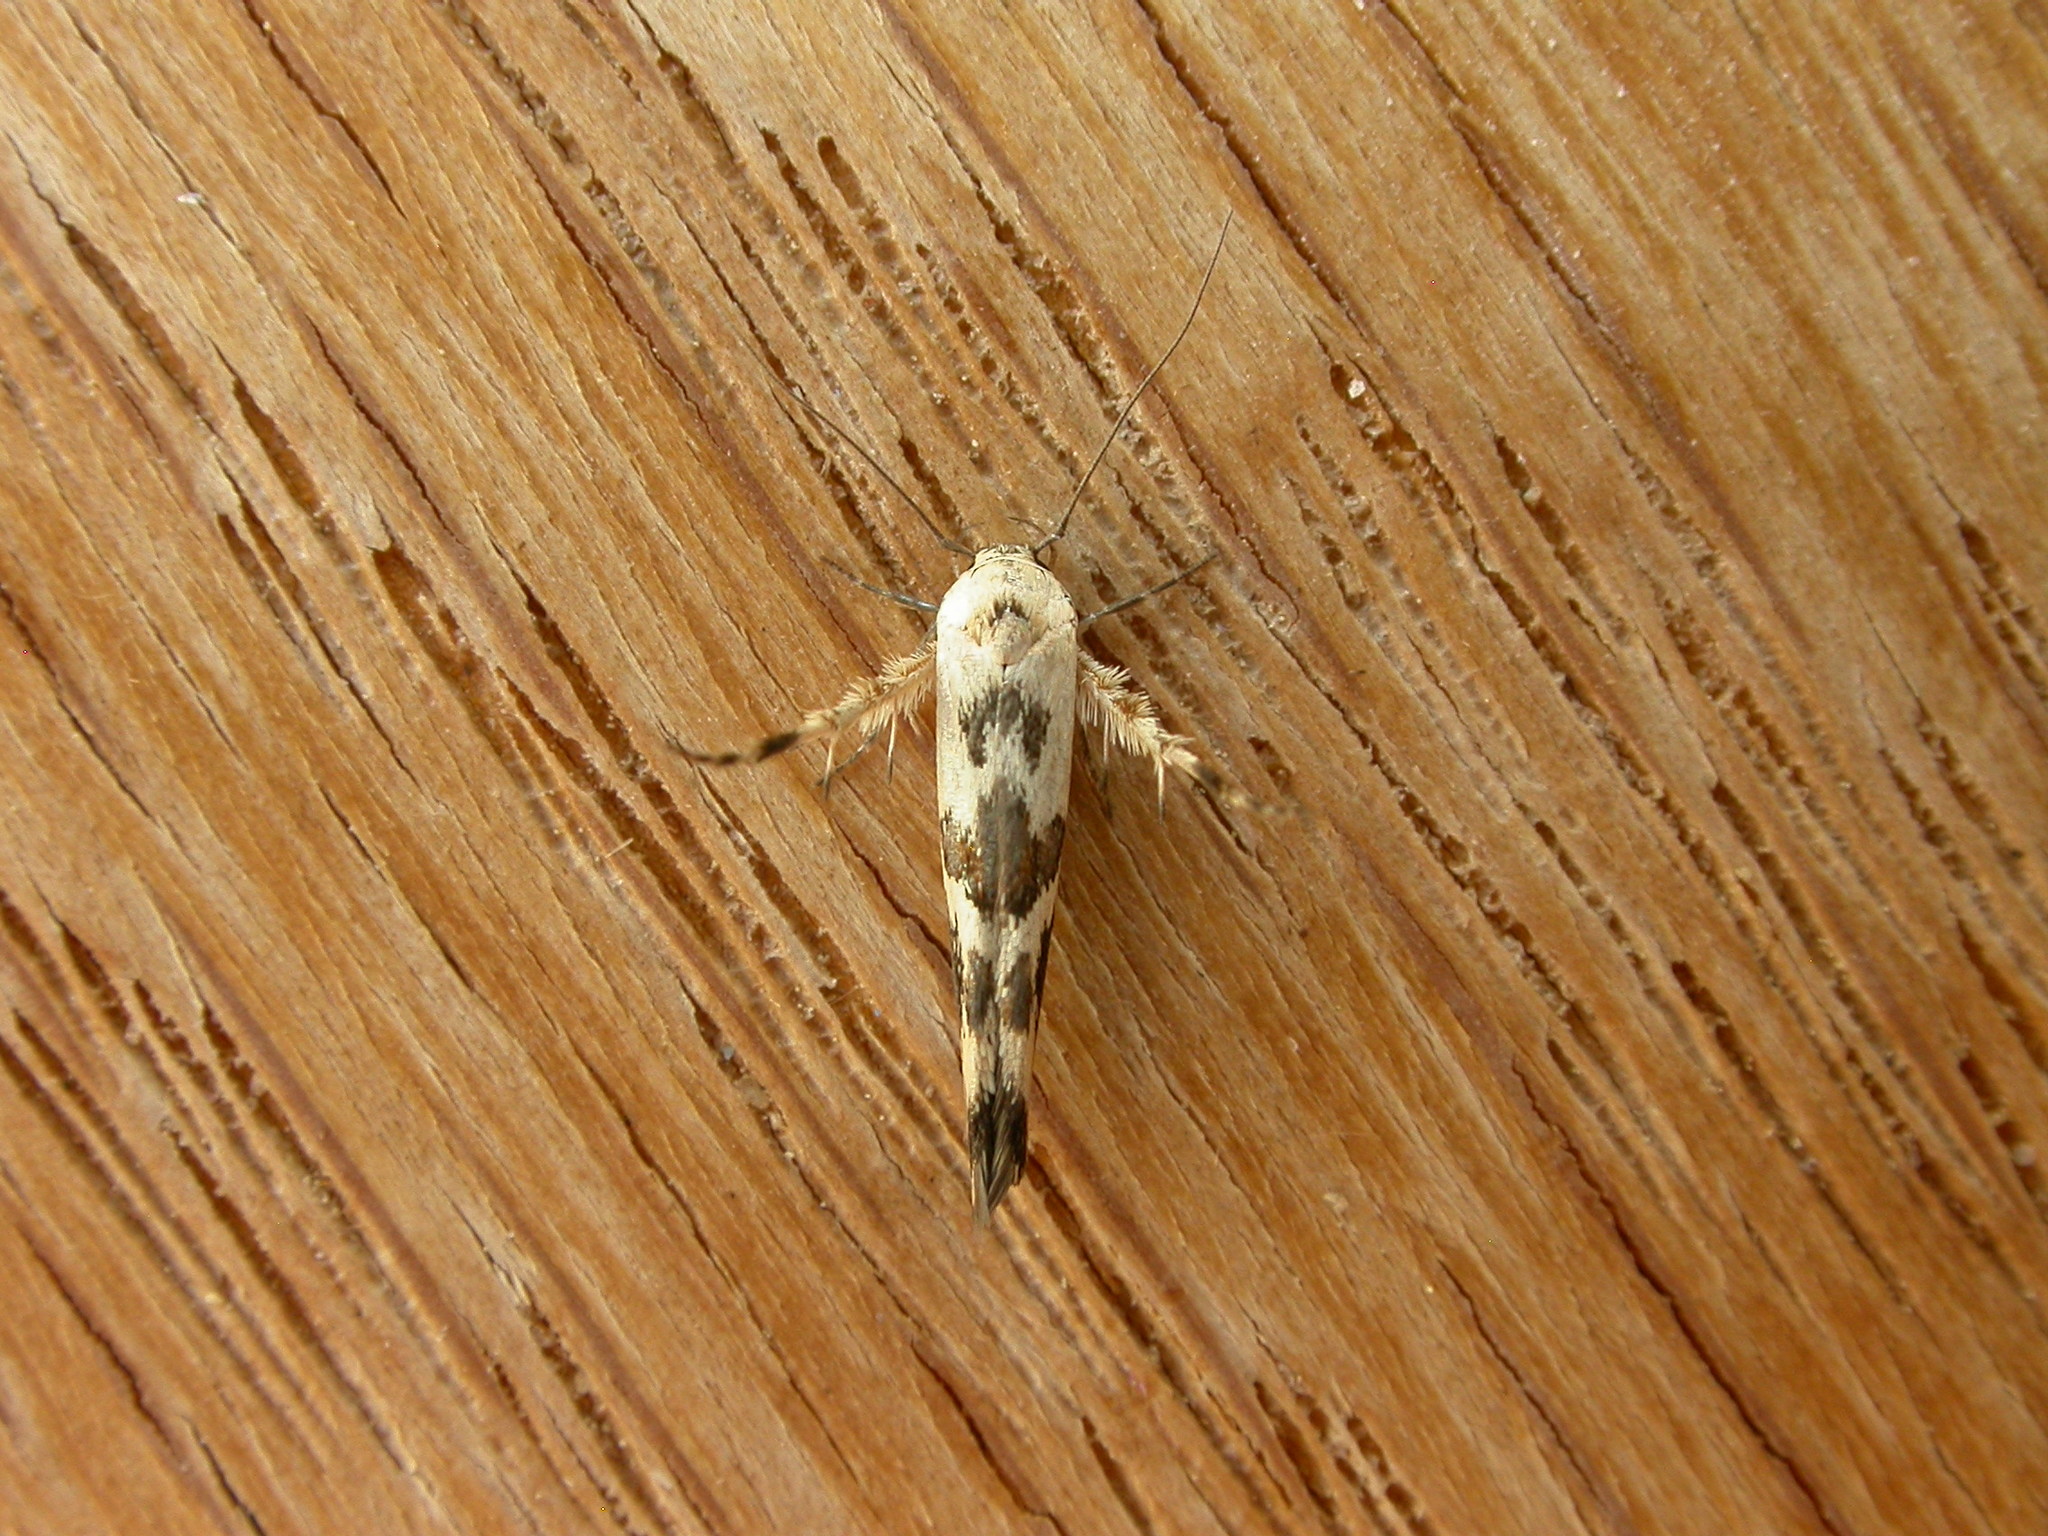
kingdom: Animalia
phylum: Arthropoda
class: Insecta
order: Lepidoptera
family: Stathmopodidae
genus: Stathmopoda
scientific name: Stathmopoda melanochra
